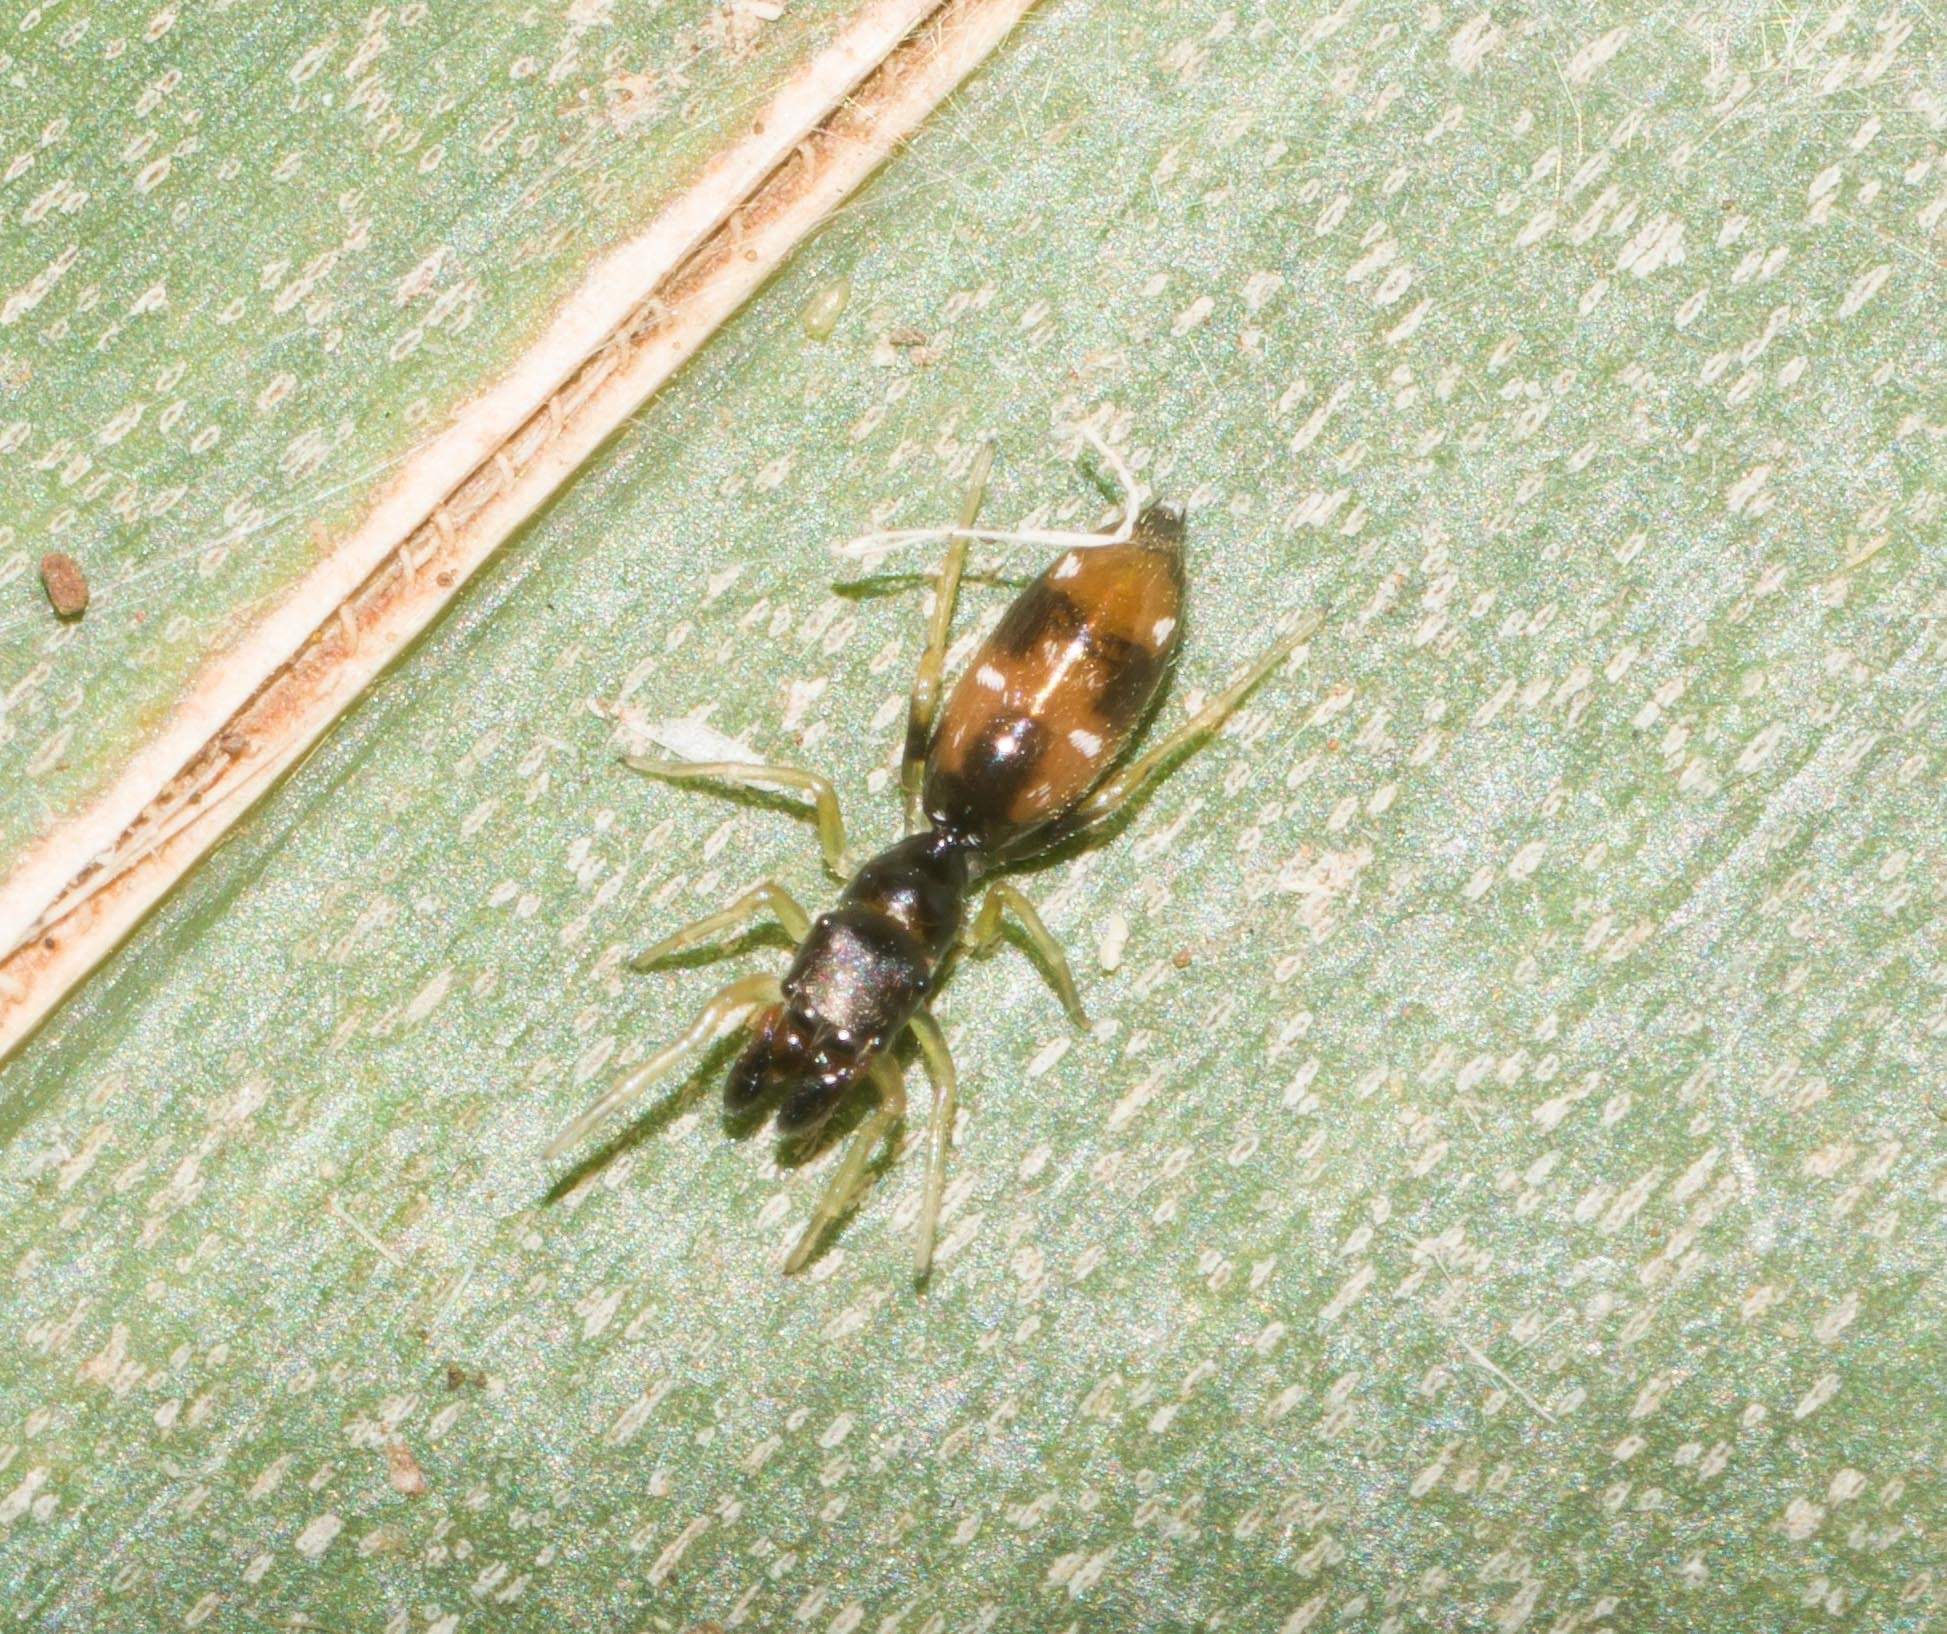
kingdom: Animalia
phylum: Arthropoda
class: Arachnida
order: Araneae
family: Salticidae
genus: Myrmarachne
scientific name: Myrmarachne nigella
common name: Jumping spider
